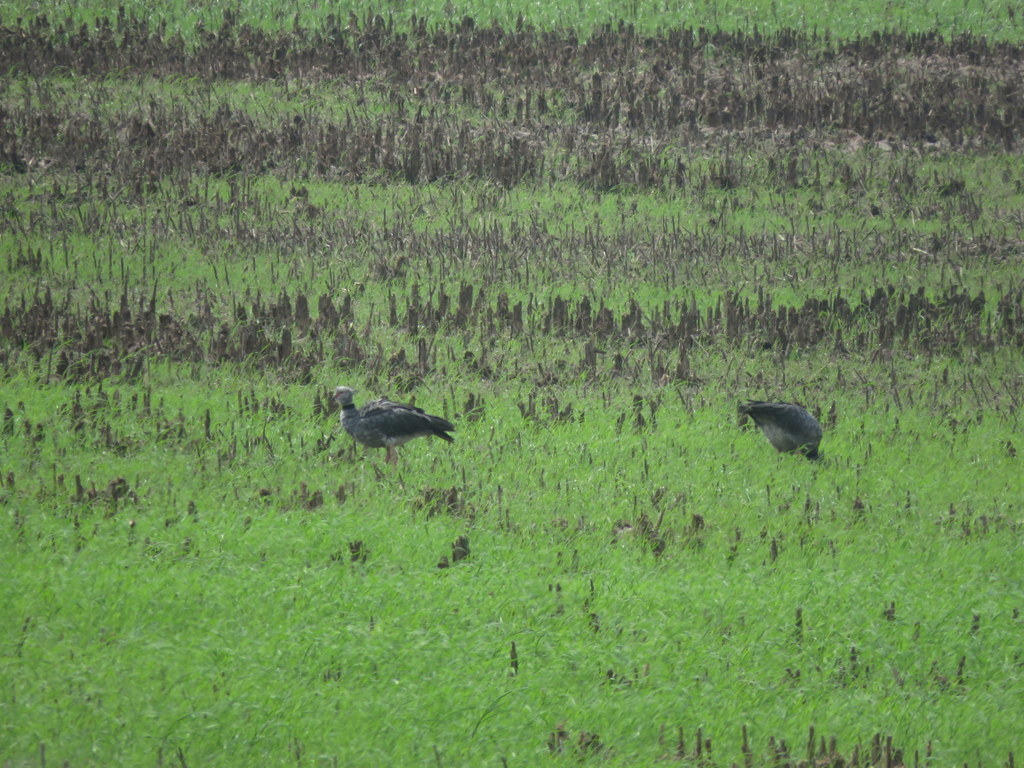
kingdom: Animalia
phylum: Chordata
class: Aves
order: Anseriformes
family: Anhimidae
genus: Chauna
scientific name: Chauna torquata
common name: Southern screamer
